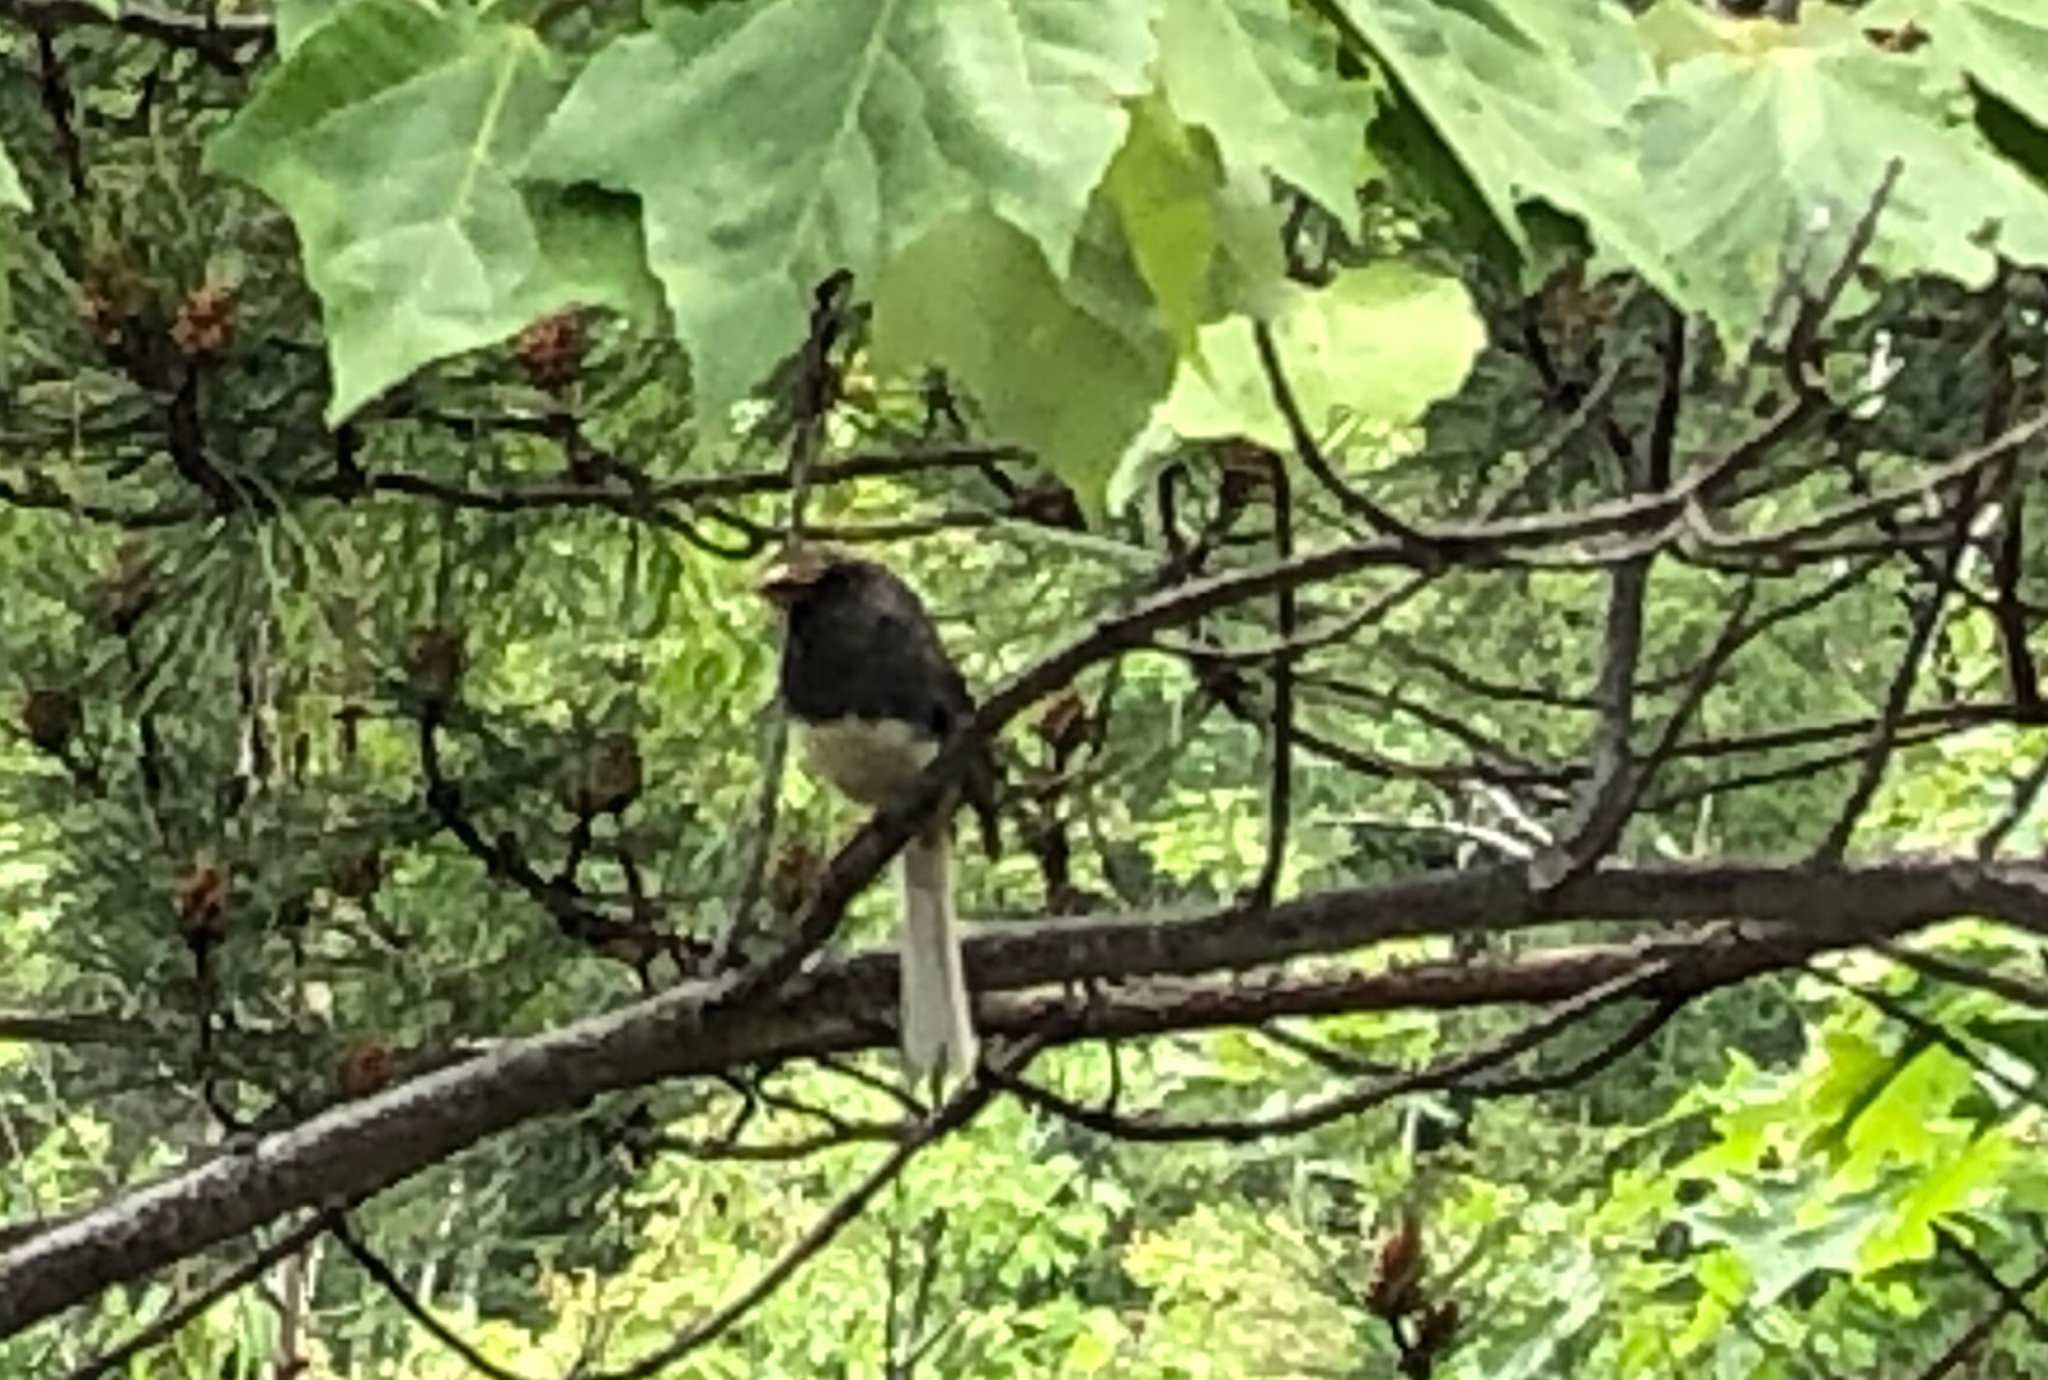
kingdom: Animalia
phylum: Chordata
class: Aves
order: Passeriformes
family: Passerellidae
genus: Junco
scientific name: Junco hyemalis
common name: Dark-eyed junco
